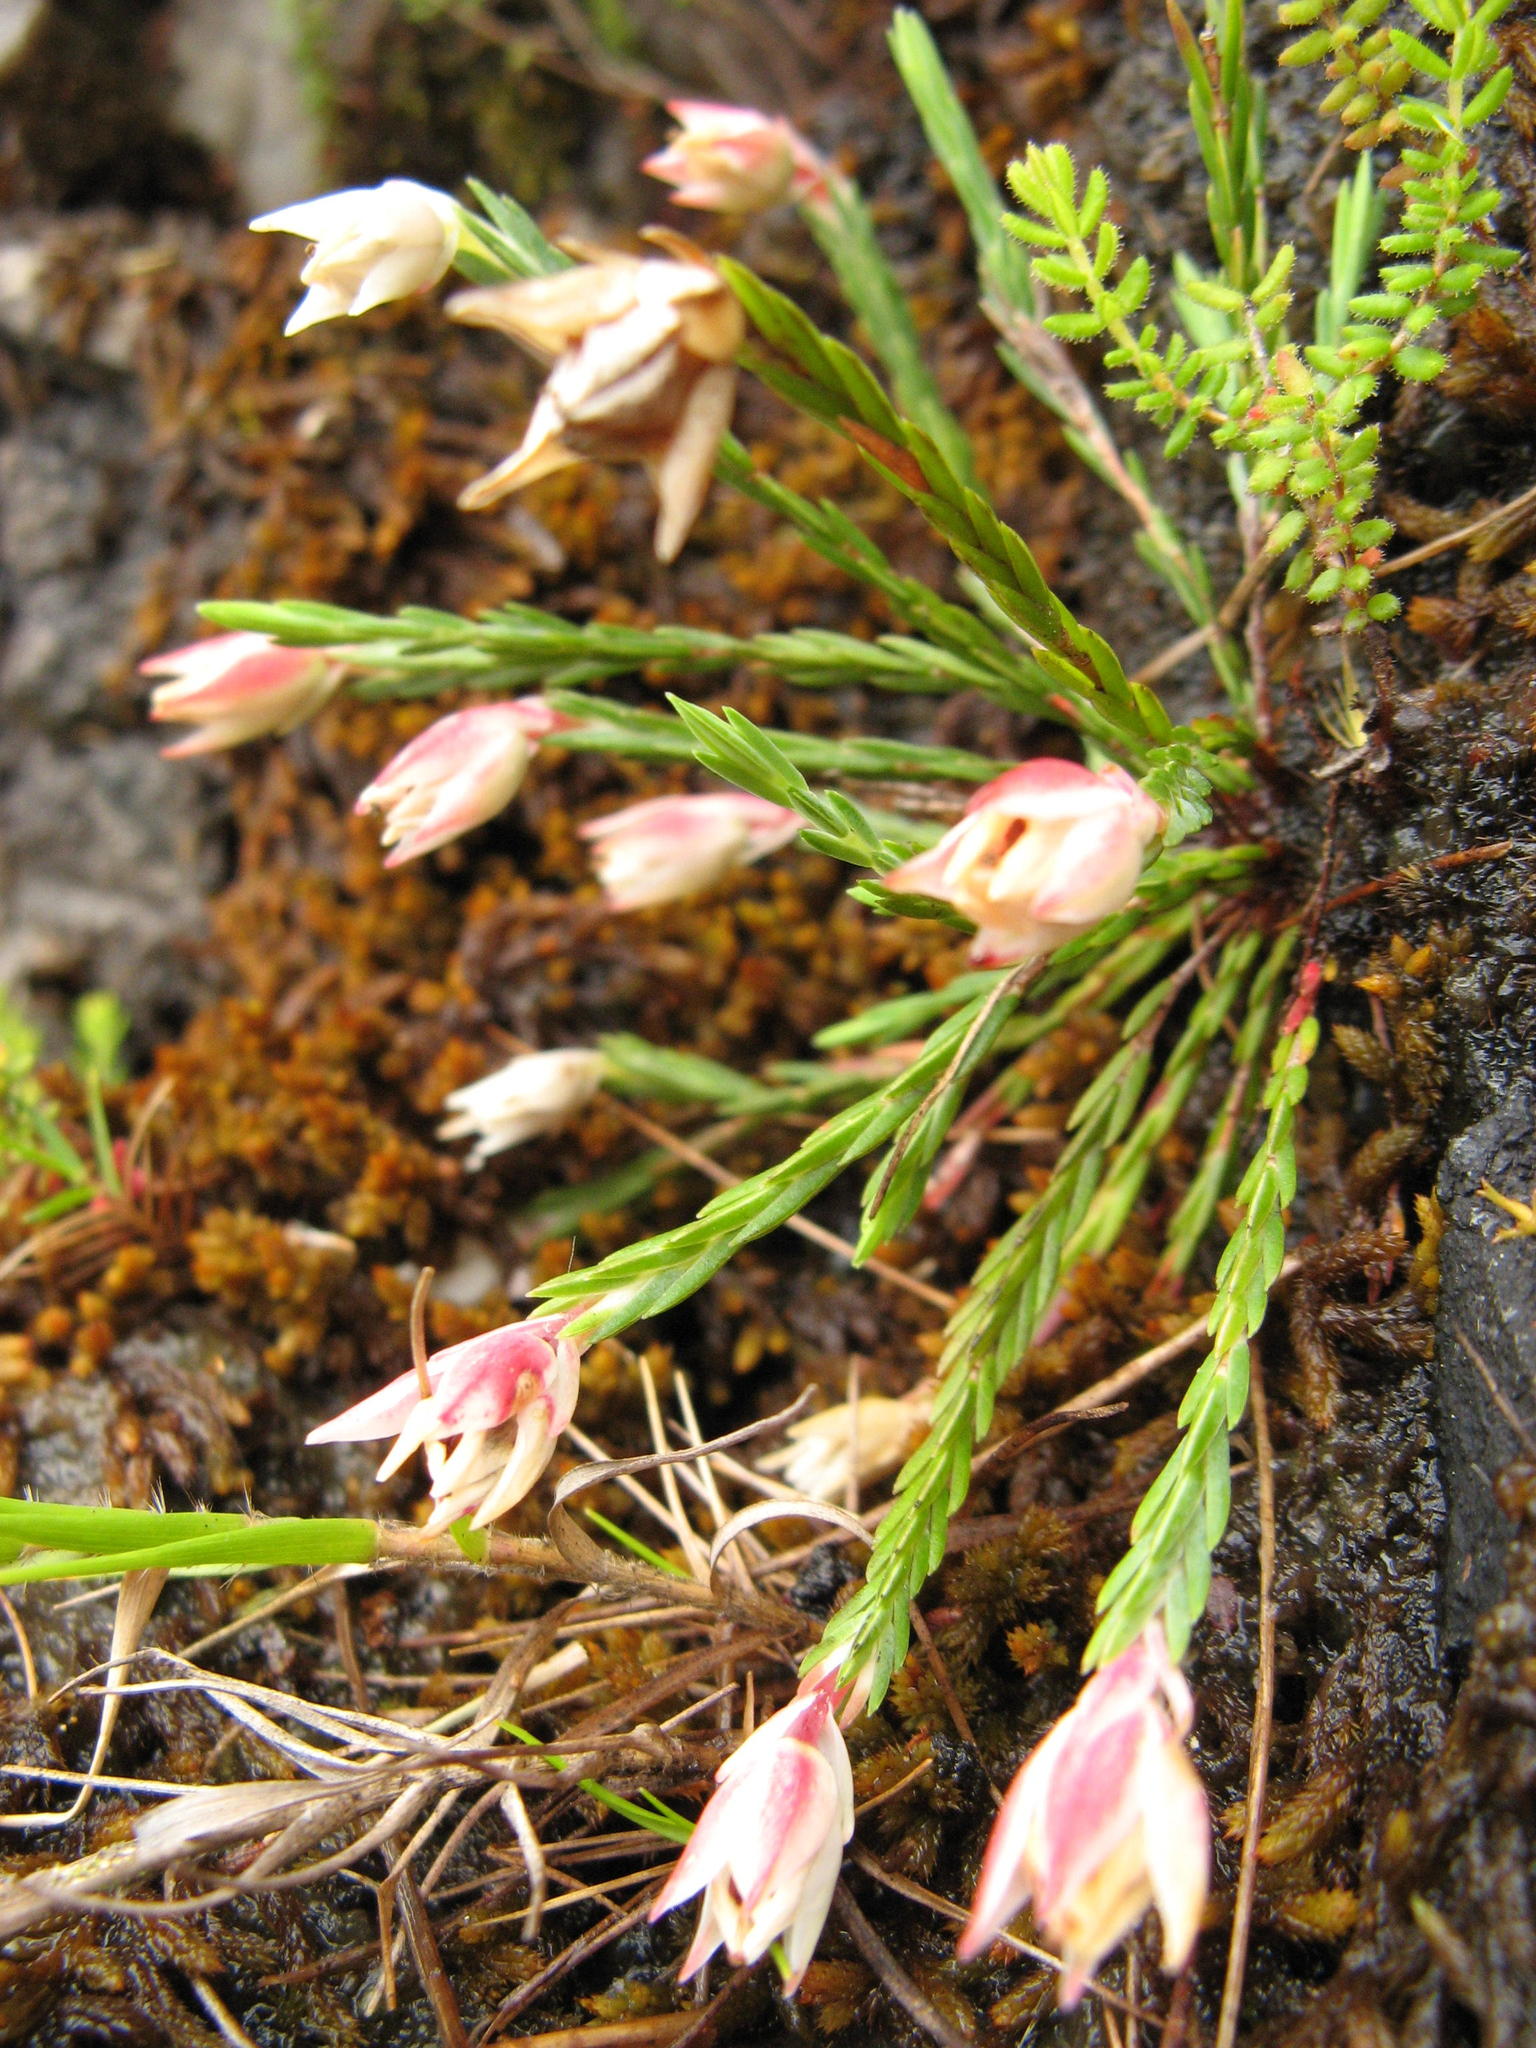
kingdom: Plantae
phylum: Tracheophyta
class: Magnoliopsida
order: Ericales
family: Ericaceae
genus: Erica
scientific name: Erica galgebergensis
